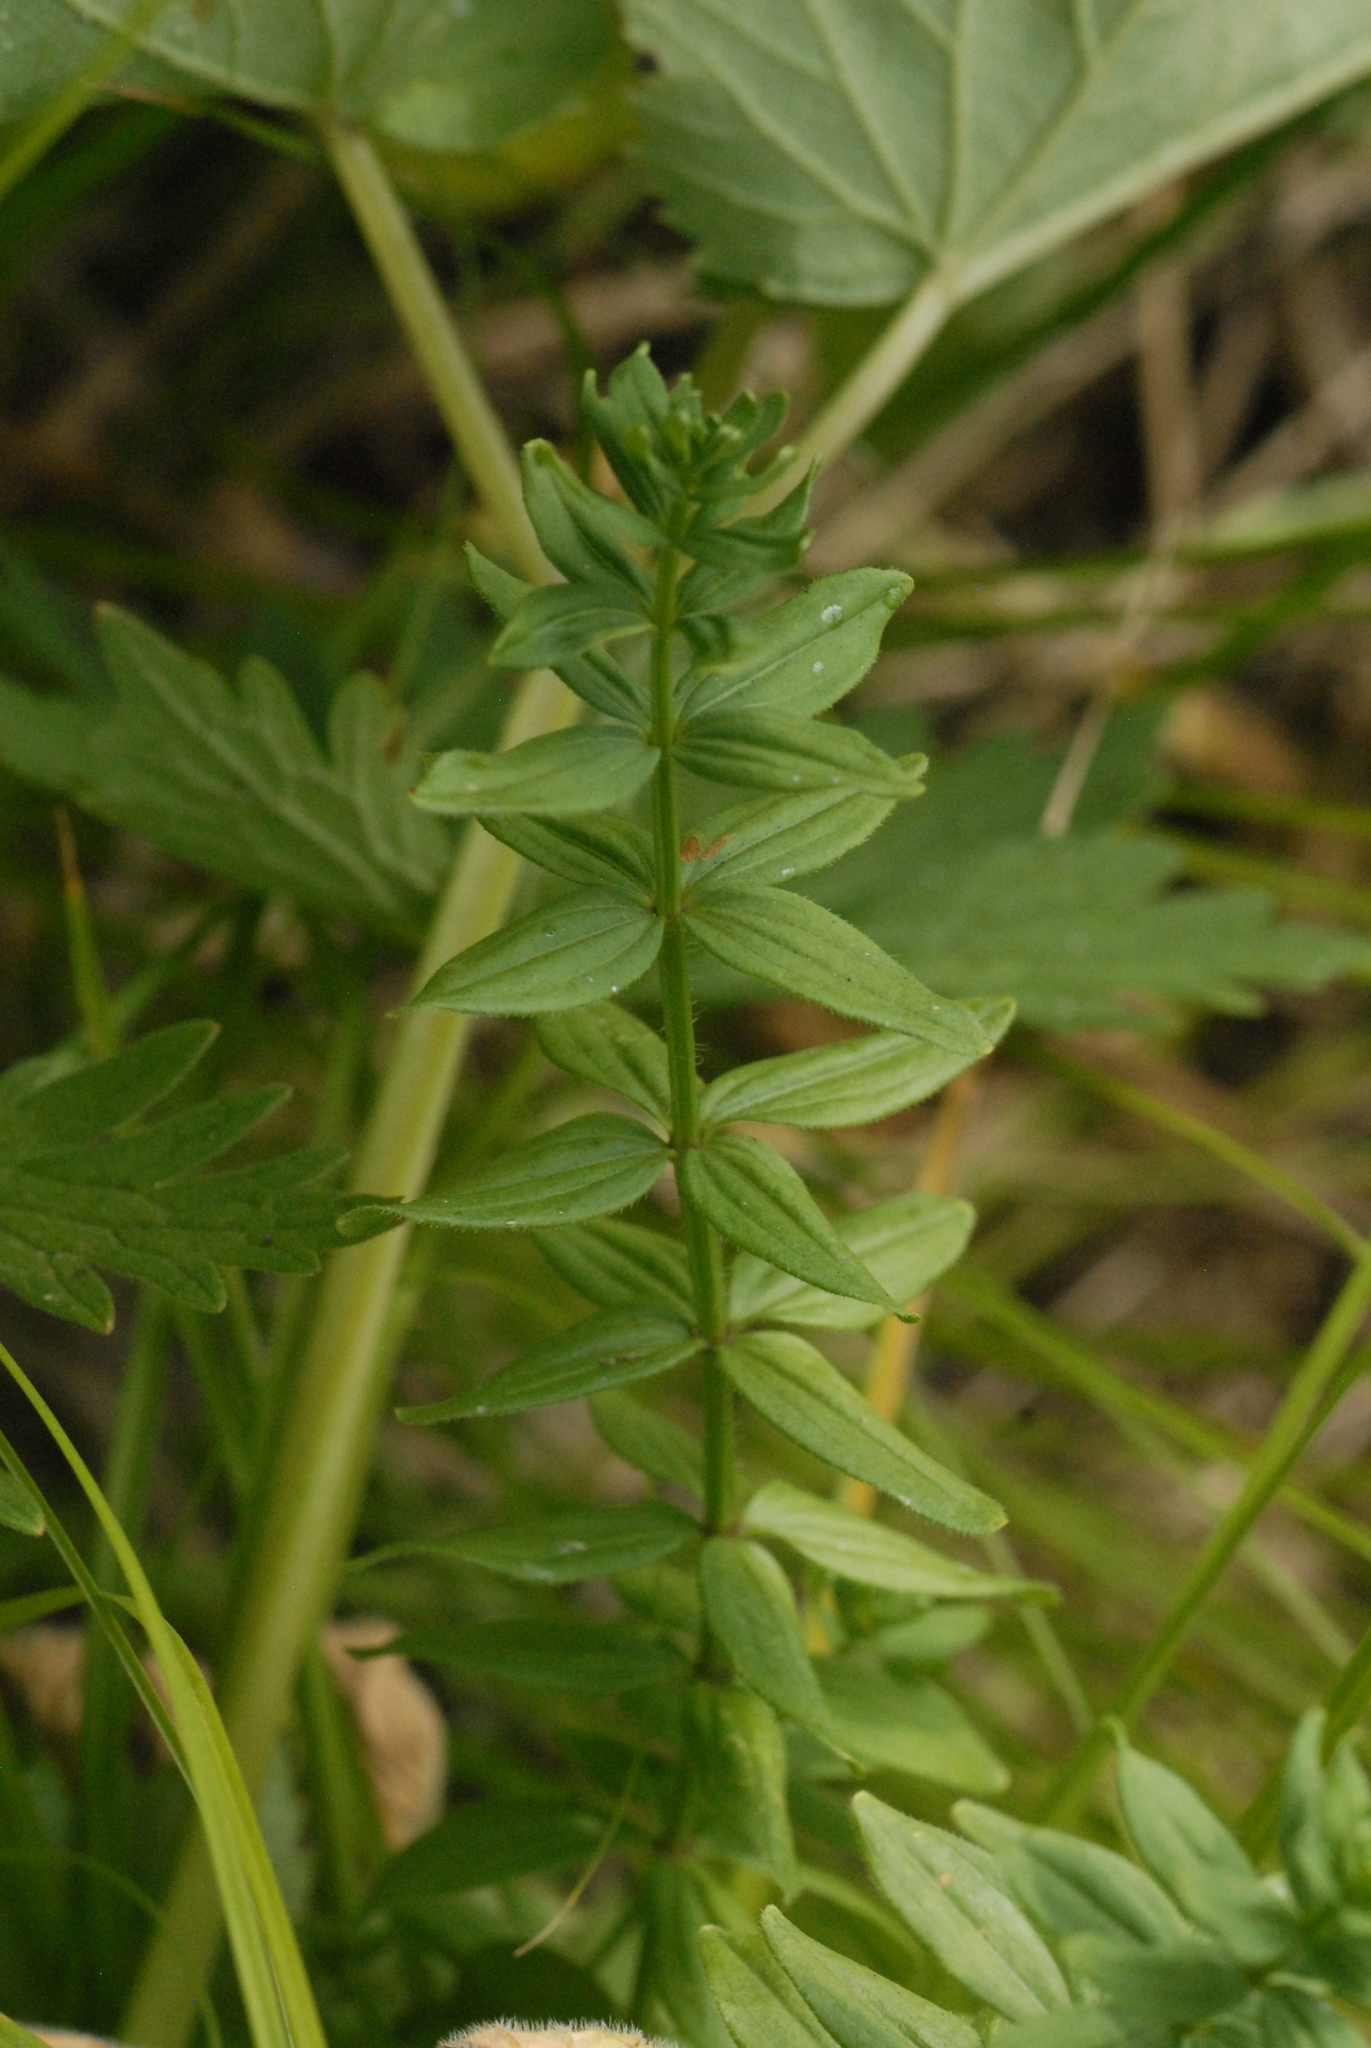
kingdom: Plantae
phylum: Tracheophyta
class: Magnoliopsida
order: Gentianales
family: Rubiaceae
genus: Cruciata
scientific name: Cruciata glabra
